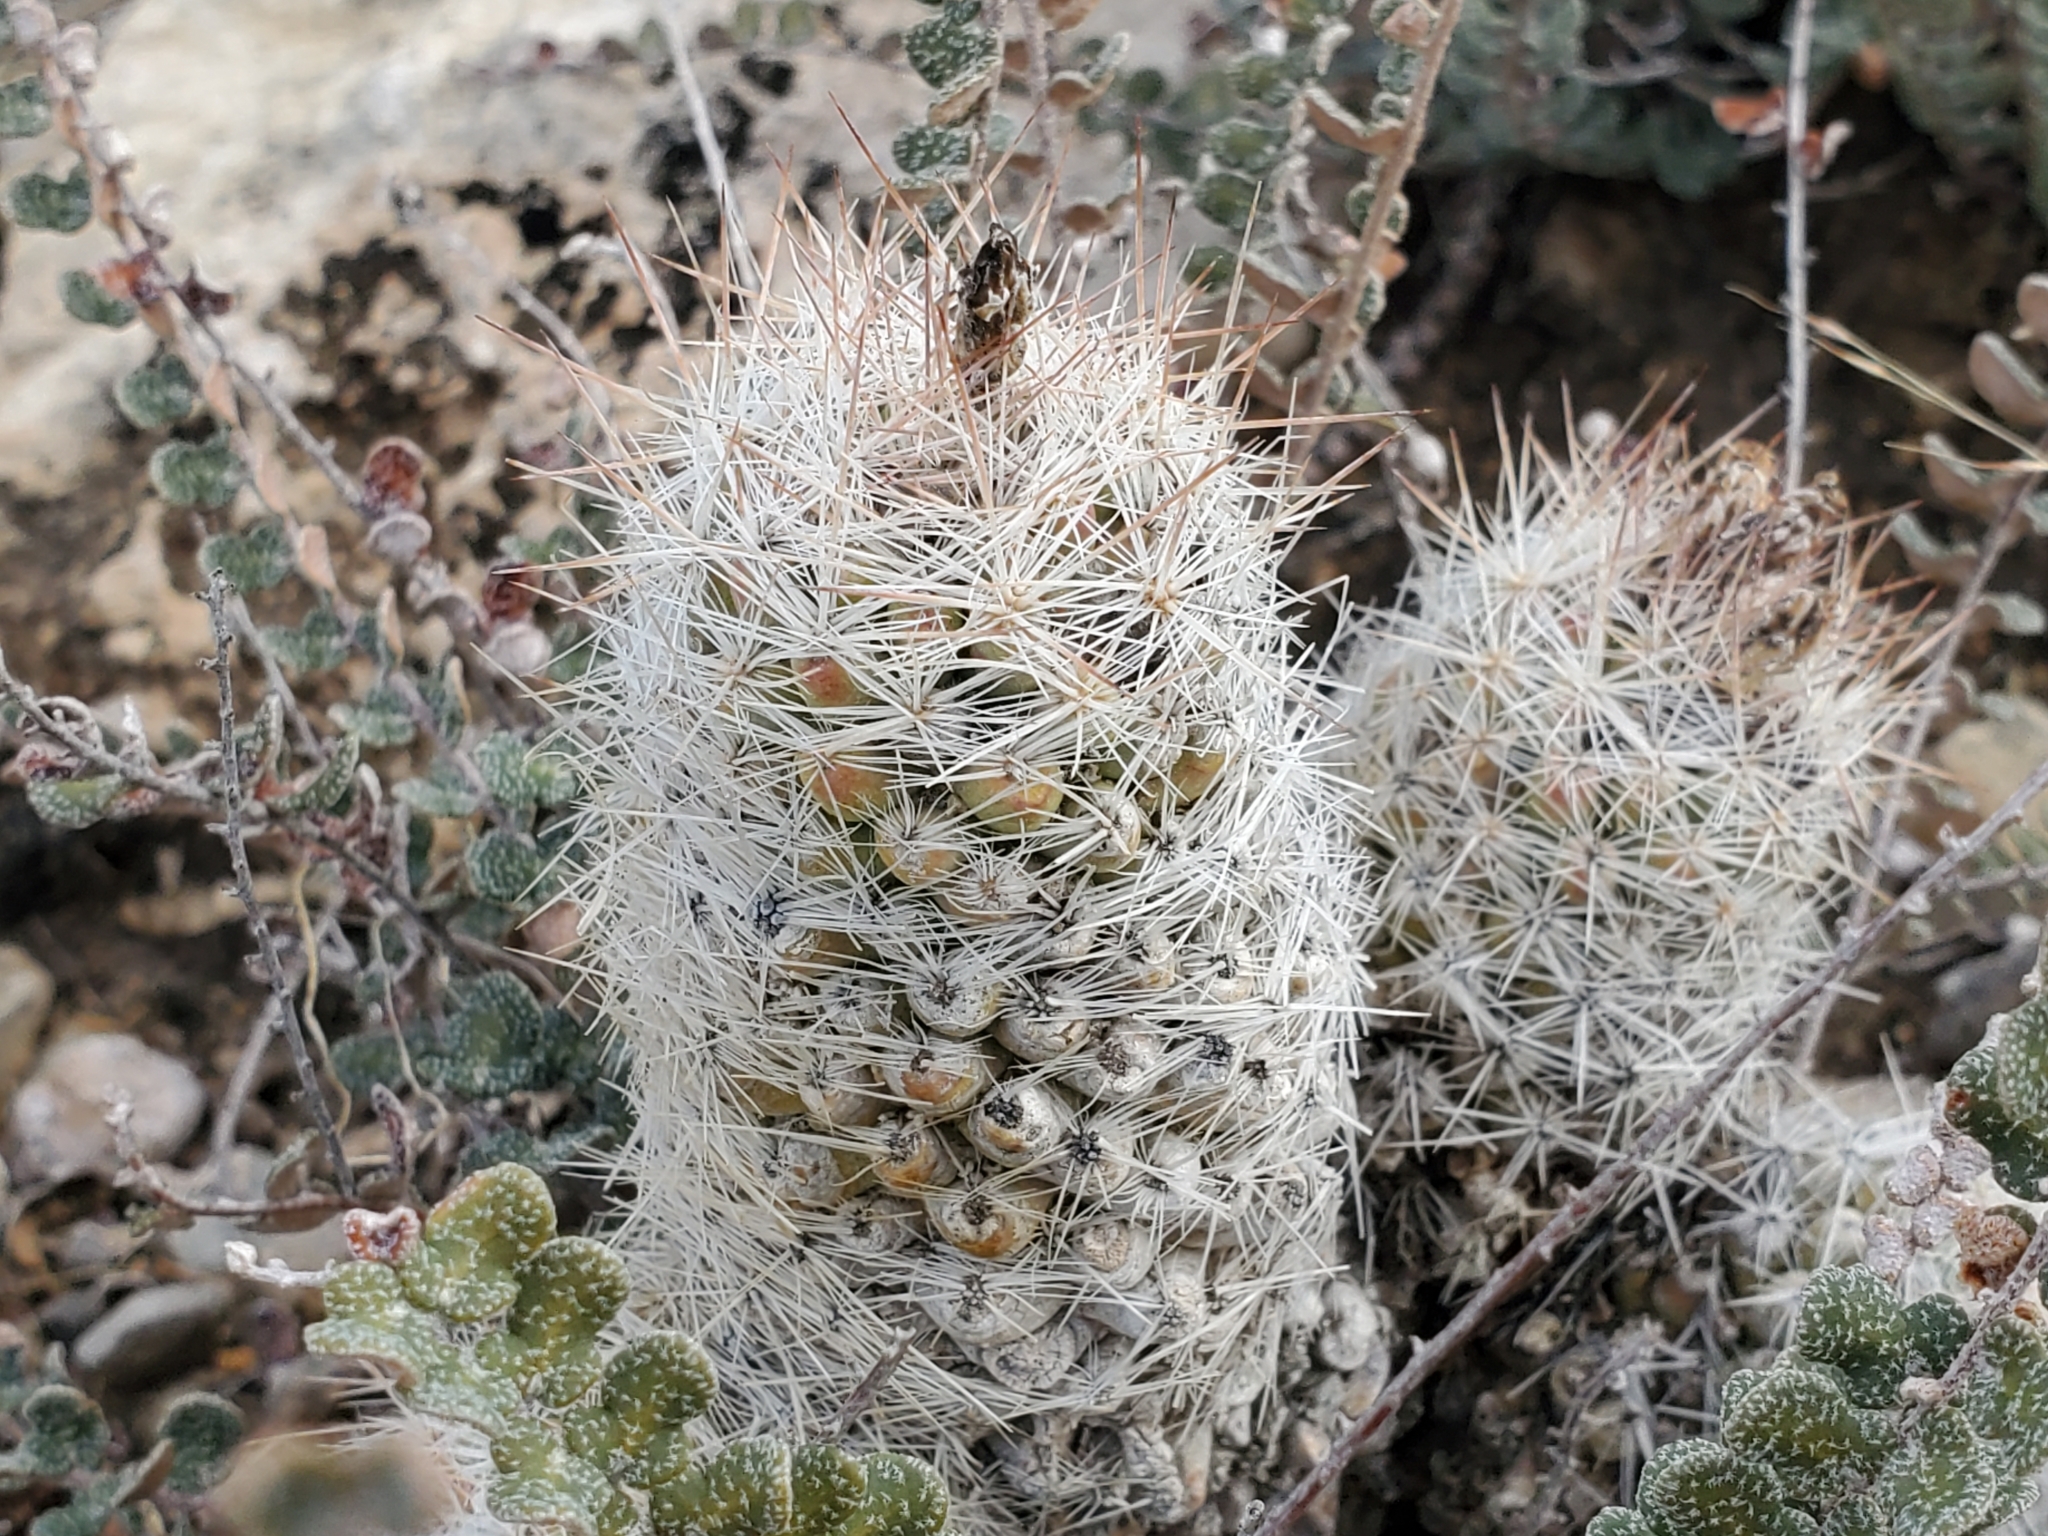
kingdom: Plantae
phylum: Tracheophyta
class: Magnoliopsida
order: Caryophyllales
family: Cactaceae
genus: Pelecyphora
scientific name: Pelecyphora tuberculosa
